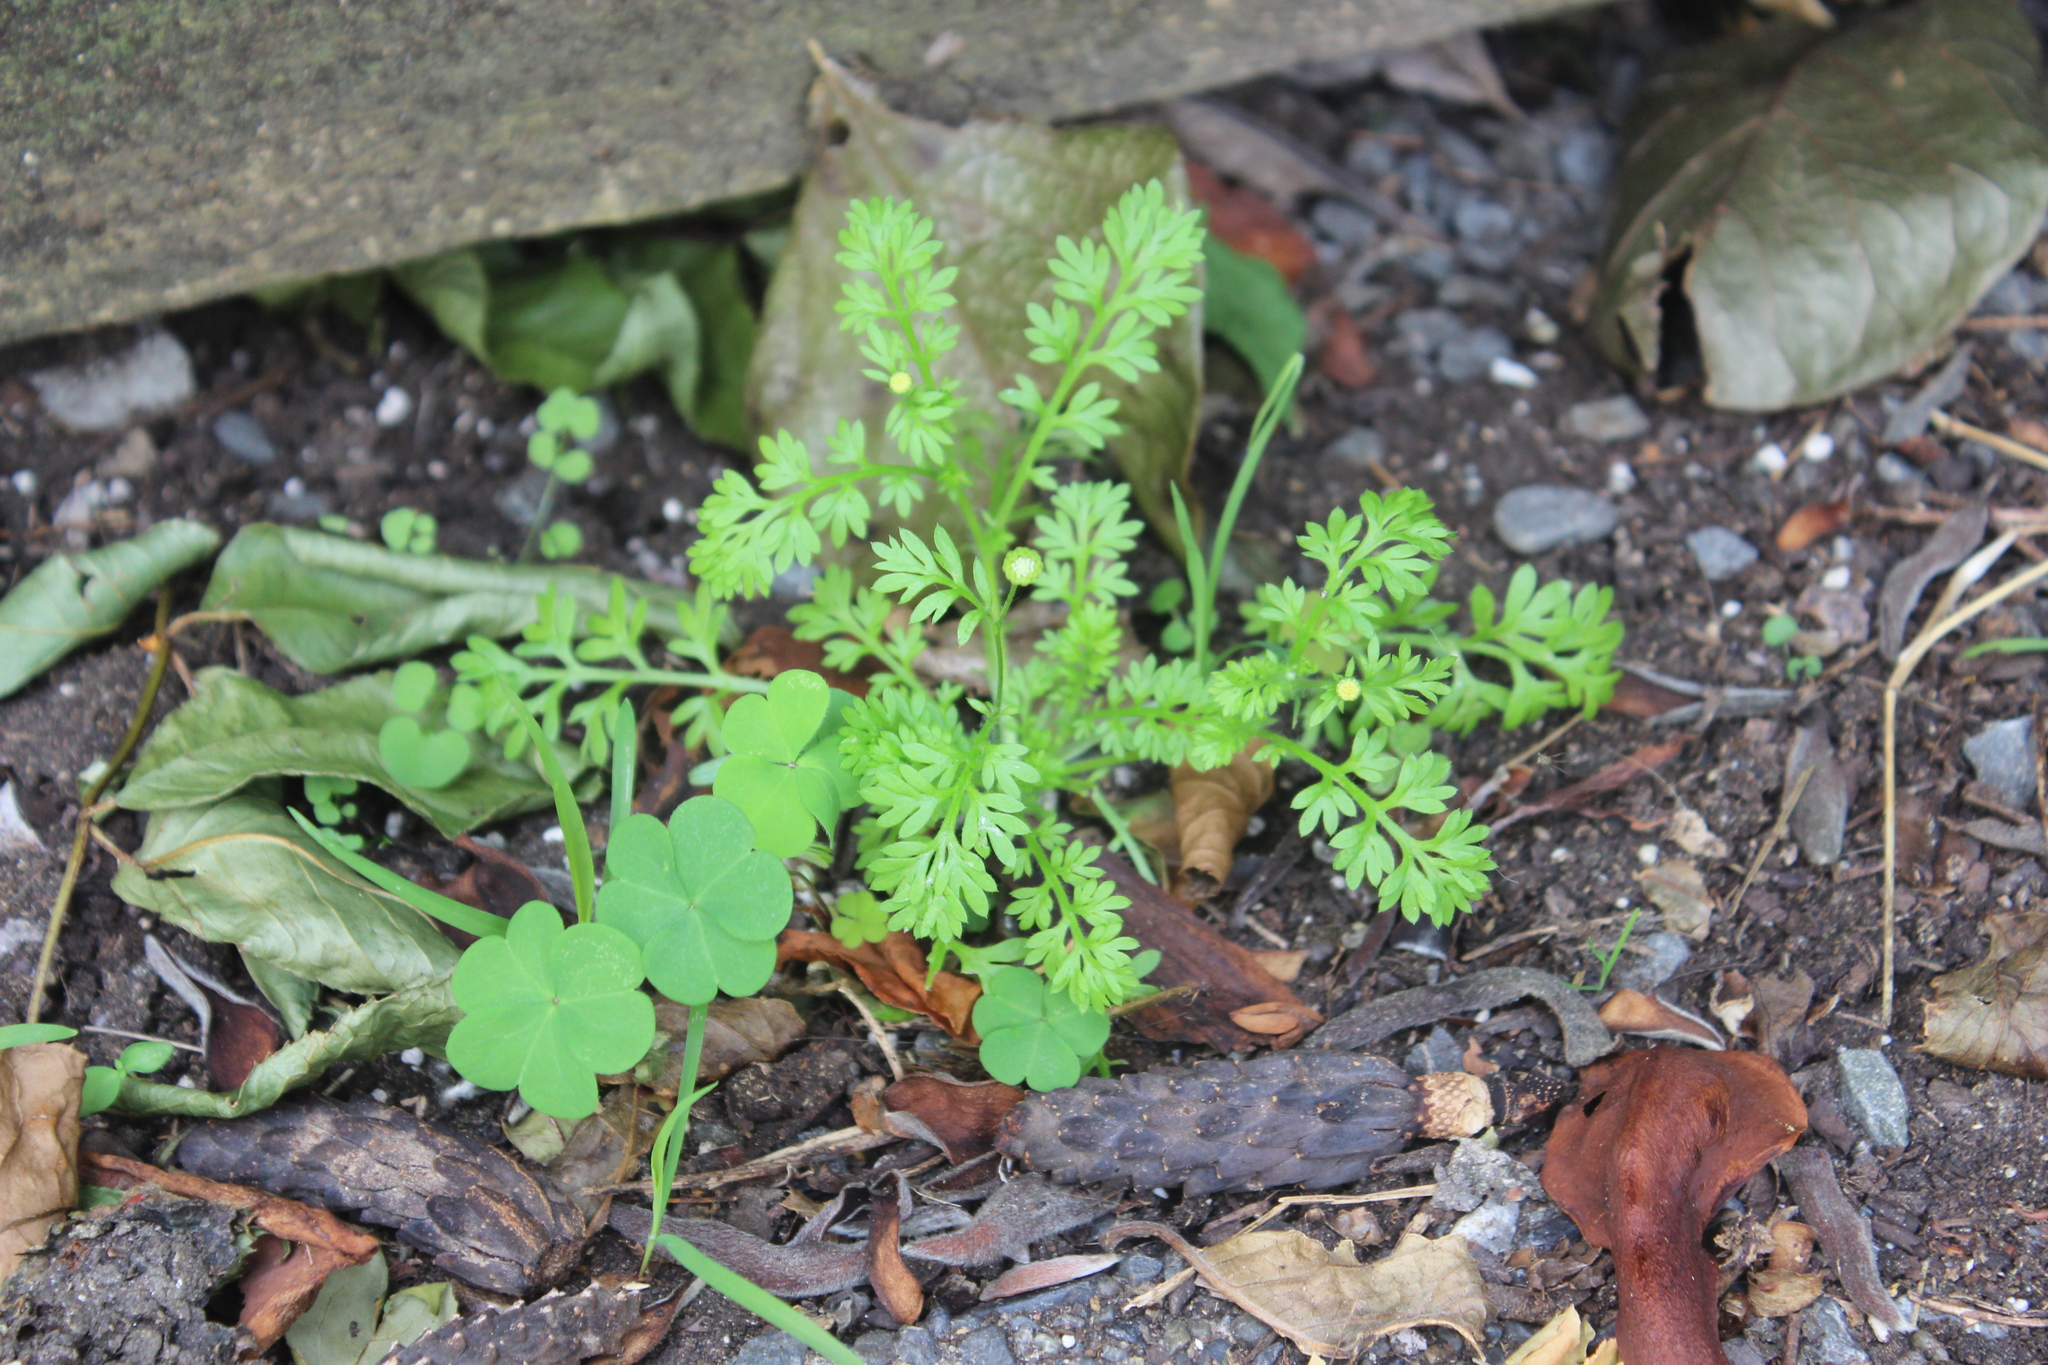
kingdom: Plantae
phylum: Tracheophyta
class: Magnoliopsida
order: Asterales
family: Asteraceae
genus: Cotula
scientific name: Cotula australis
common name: Australian waterbuttons
